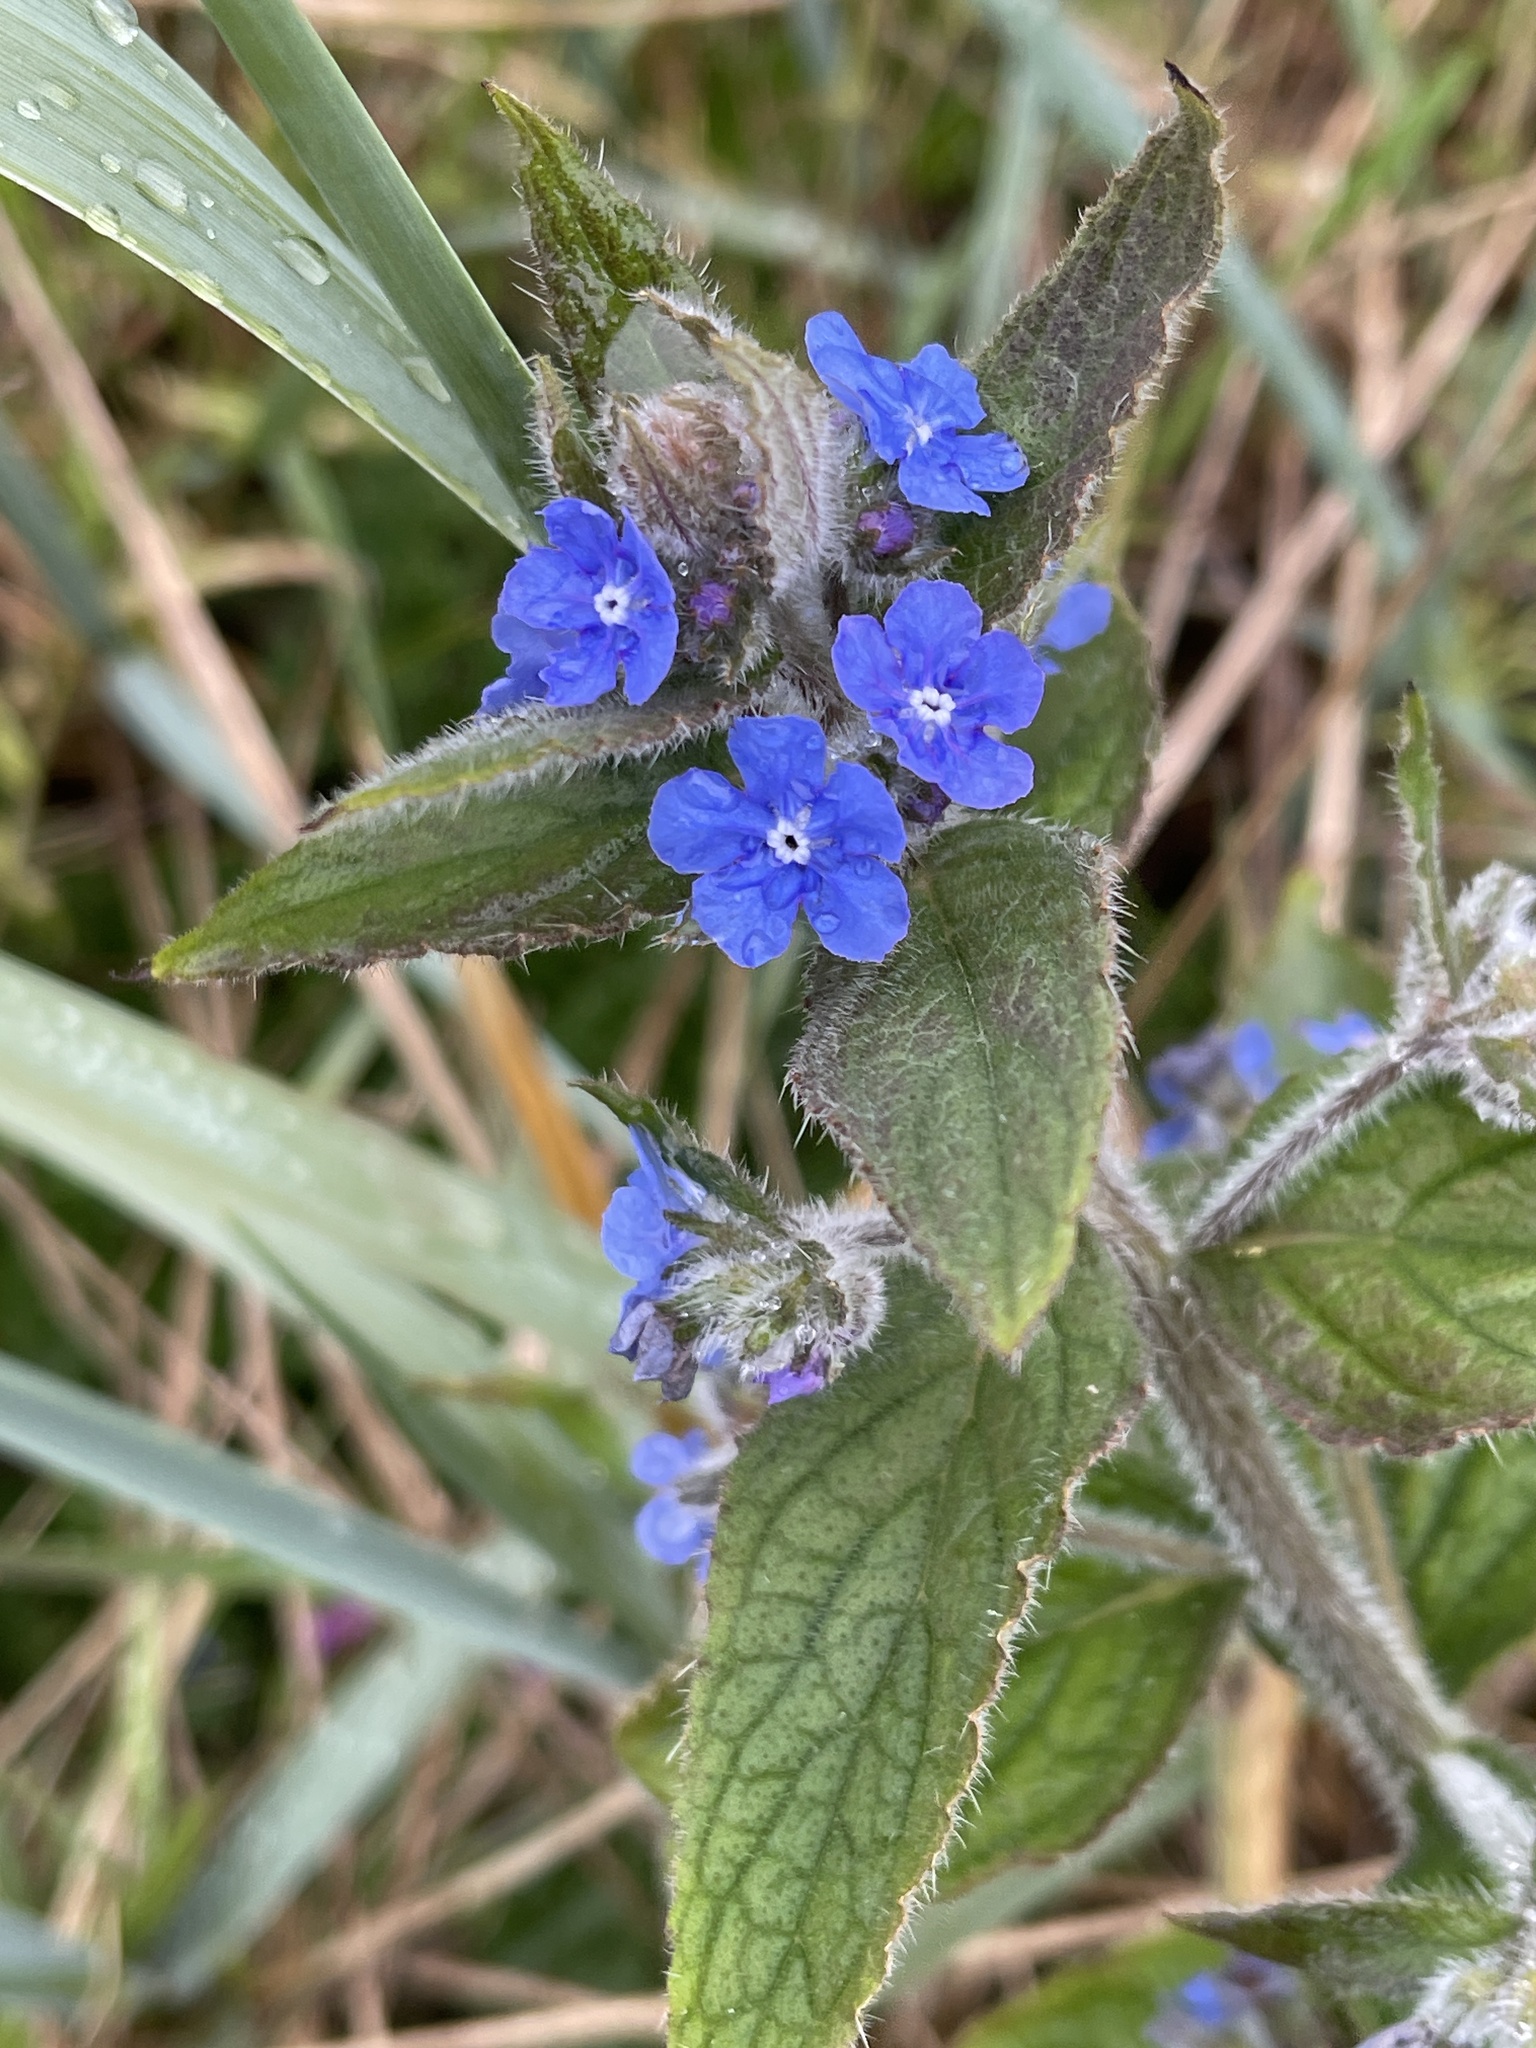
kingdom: Plantae
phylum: Tracheophyta
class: Magnoliopsida
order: Boraginales
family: Boraginaceae
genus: Pentaglottis
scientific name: Pentaglottis sempervirens
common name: Green alkanet
